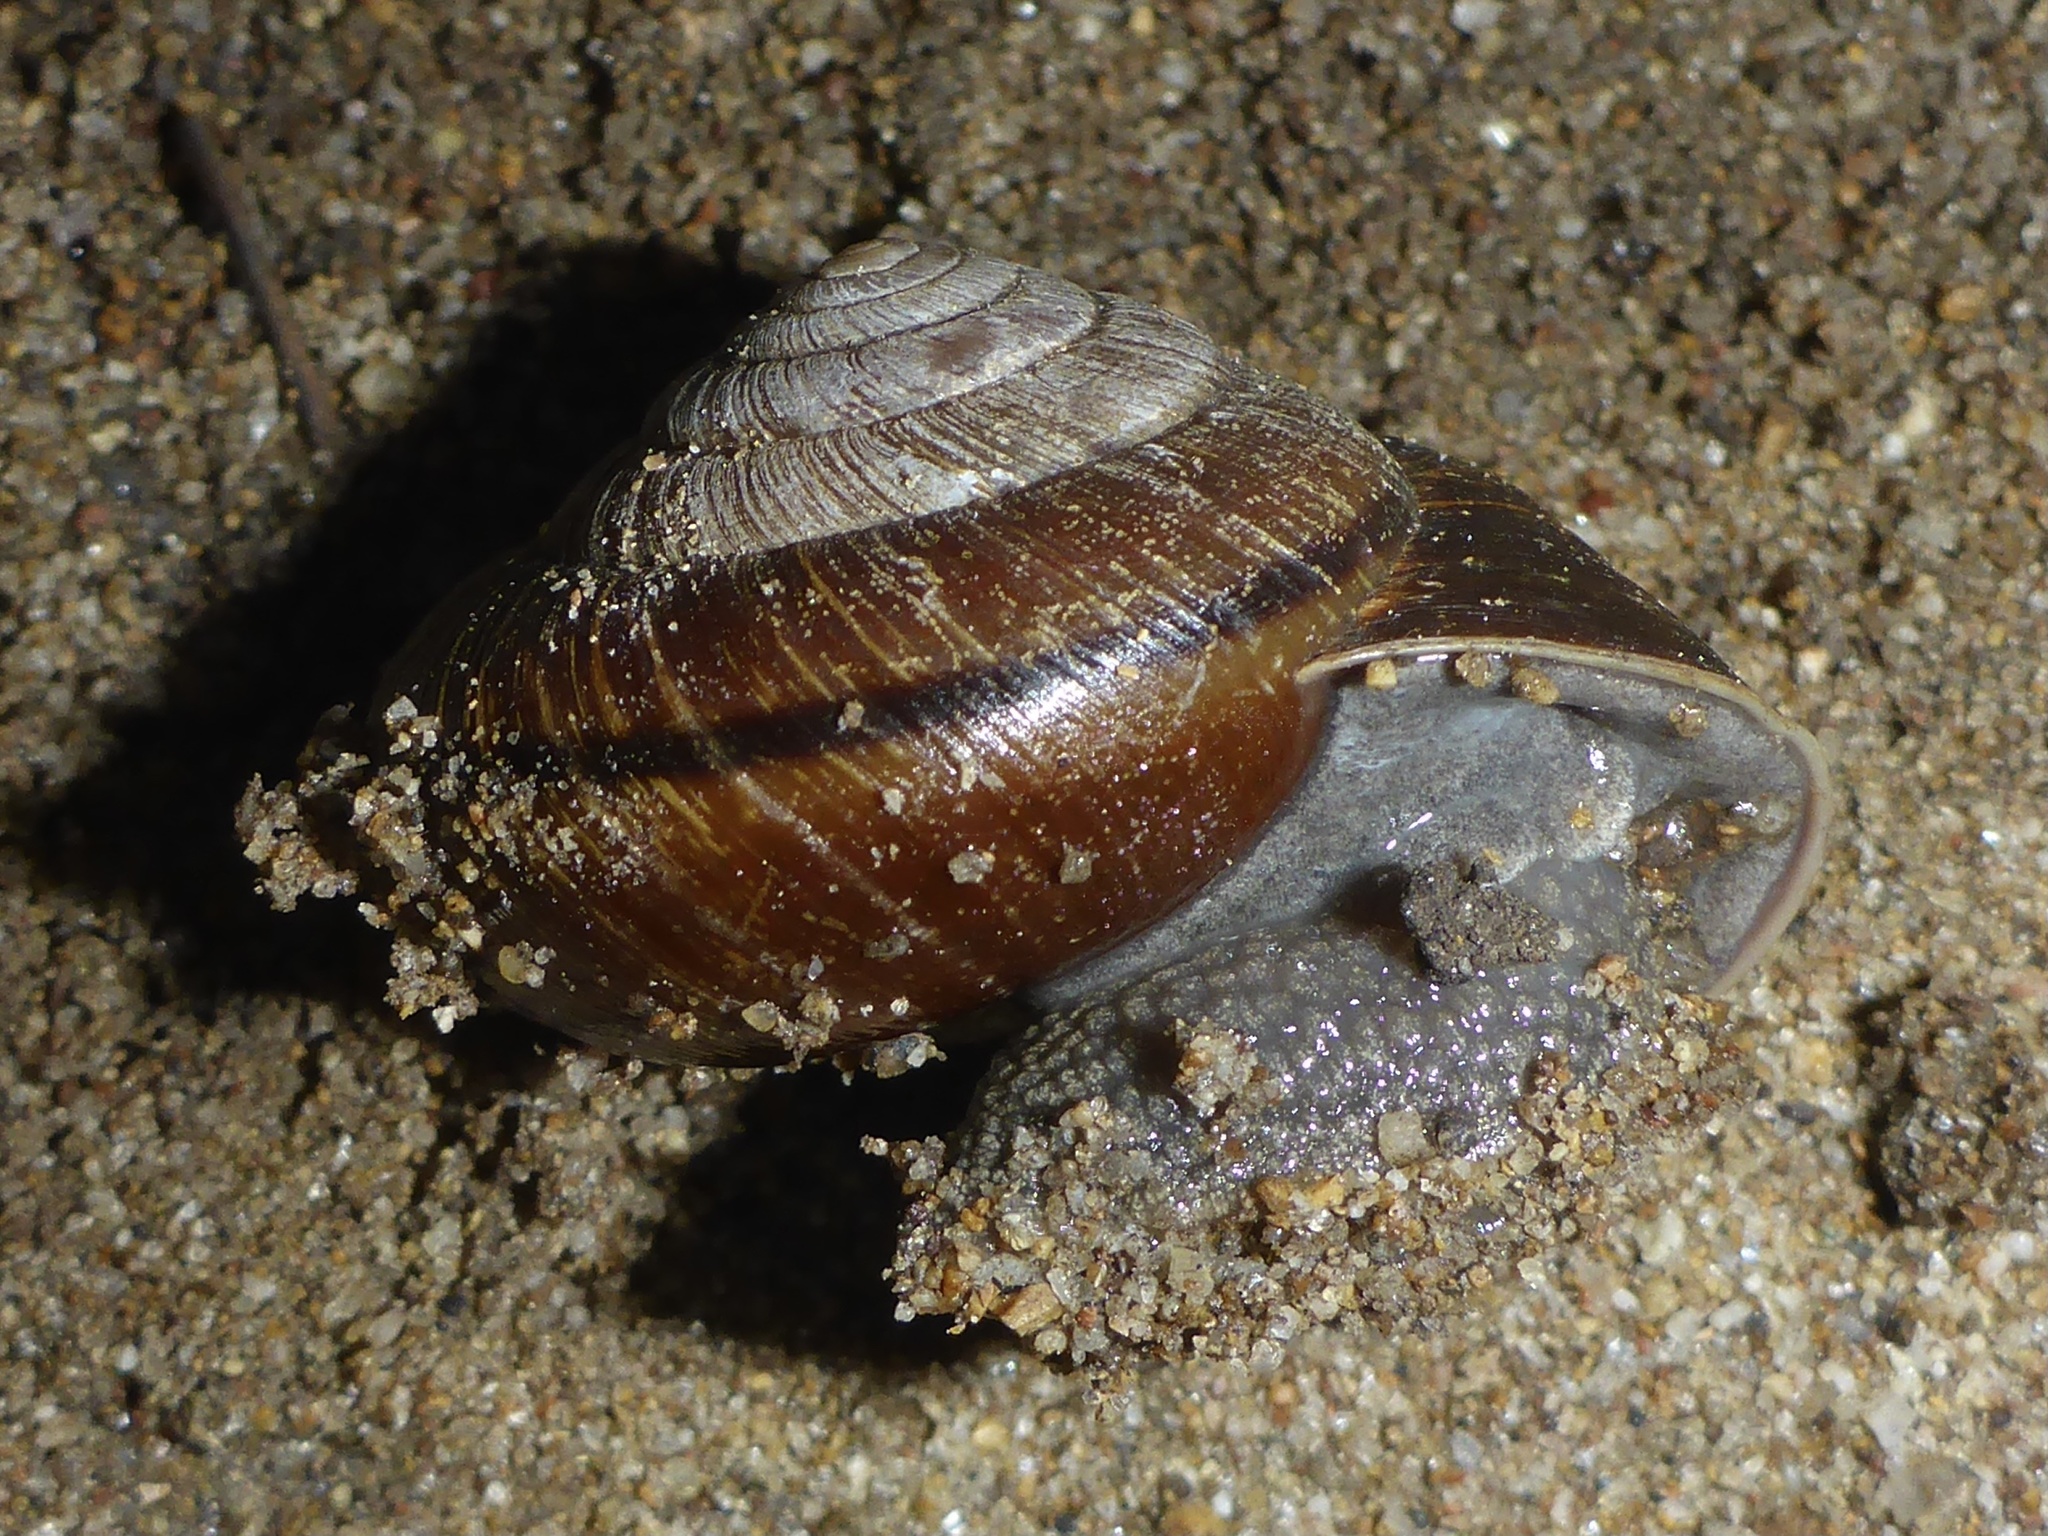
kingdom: Animalia
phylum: Mollusca
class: Gastropoda
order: Stylommatophora
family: Xanthonychidae
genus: Helminthoglypta
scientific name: Helminthoglypta arrosa
